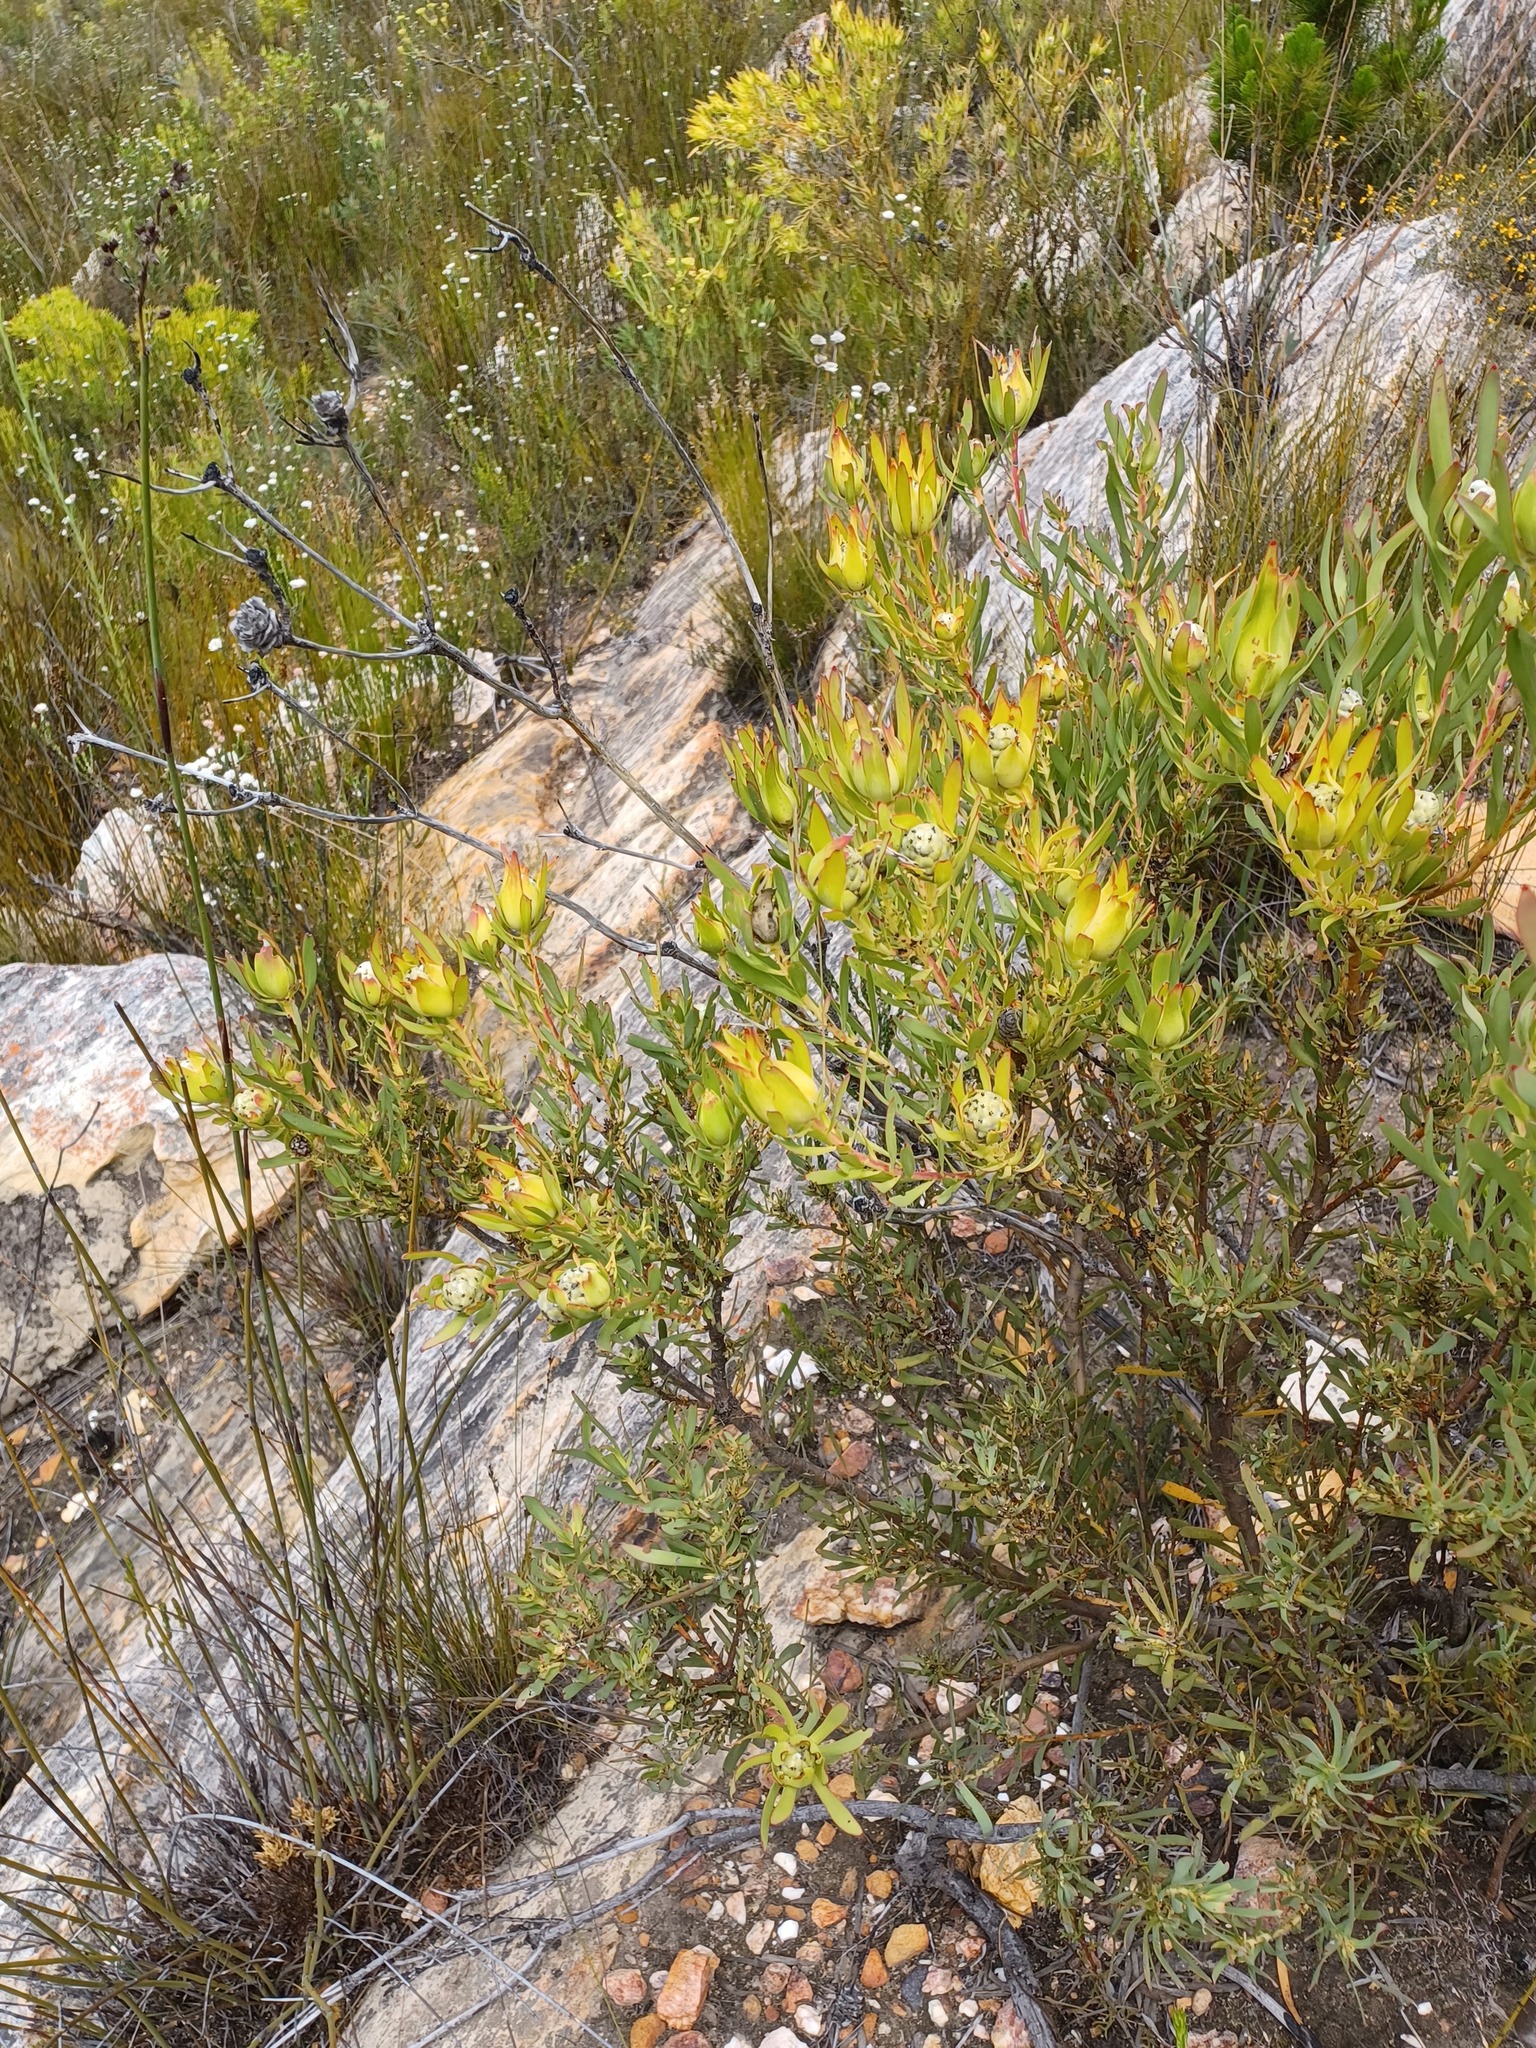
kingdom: Plantae
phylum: Tracheophyta
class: Magnoliopsida
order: Proteales
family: Proteaceae
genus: Leucadendron
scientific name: Leucadendron salignum
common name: Common sunshine conebush
